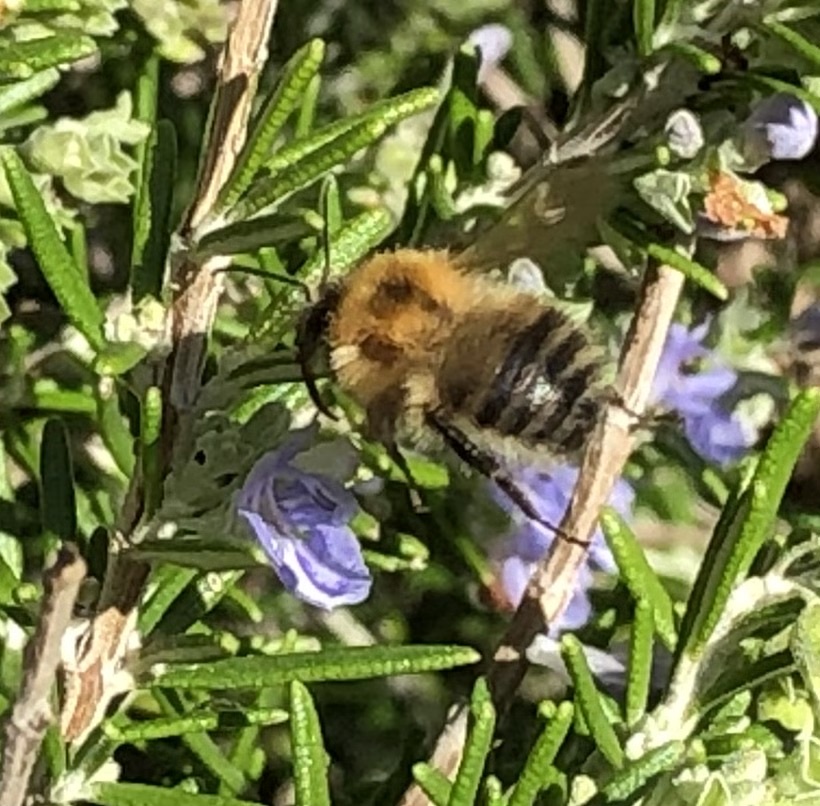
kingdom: Animalia
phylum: Arthropoda
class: Insecta
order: Hymenoptera
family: Apidae
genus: Bombus
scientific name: Bombus pascuorum
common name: Common carder bee
